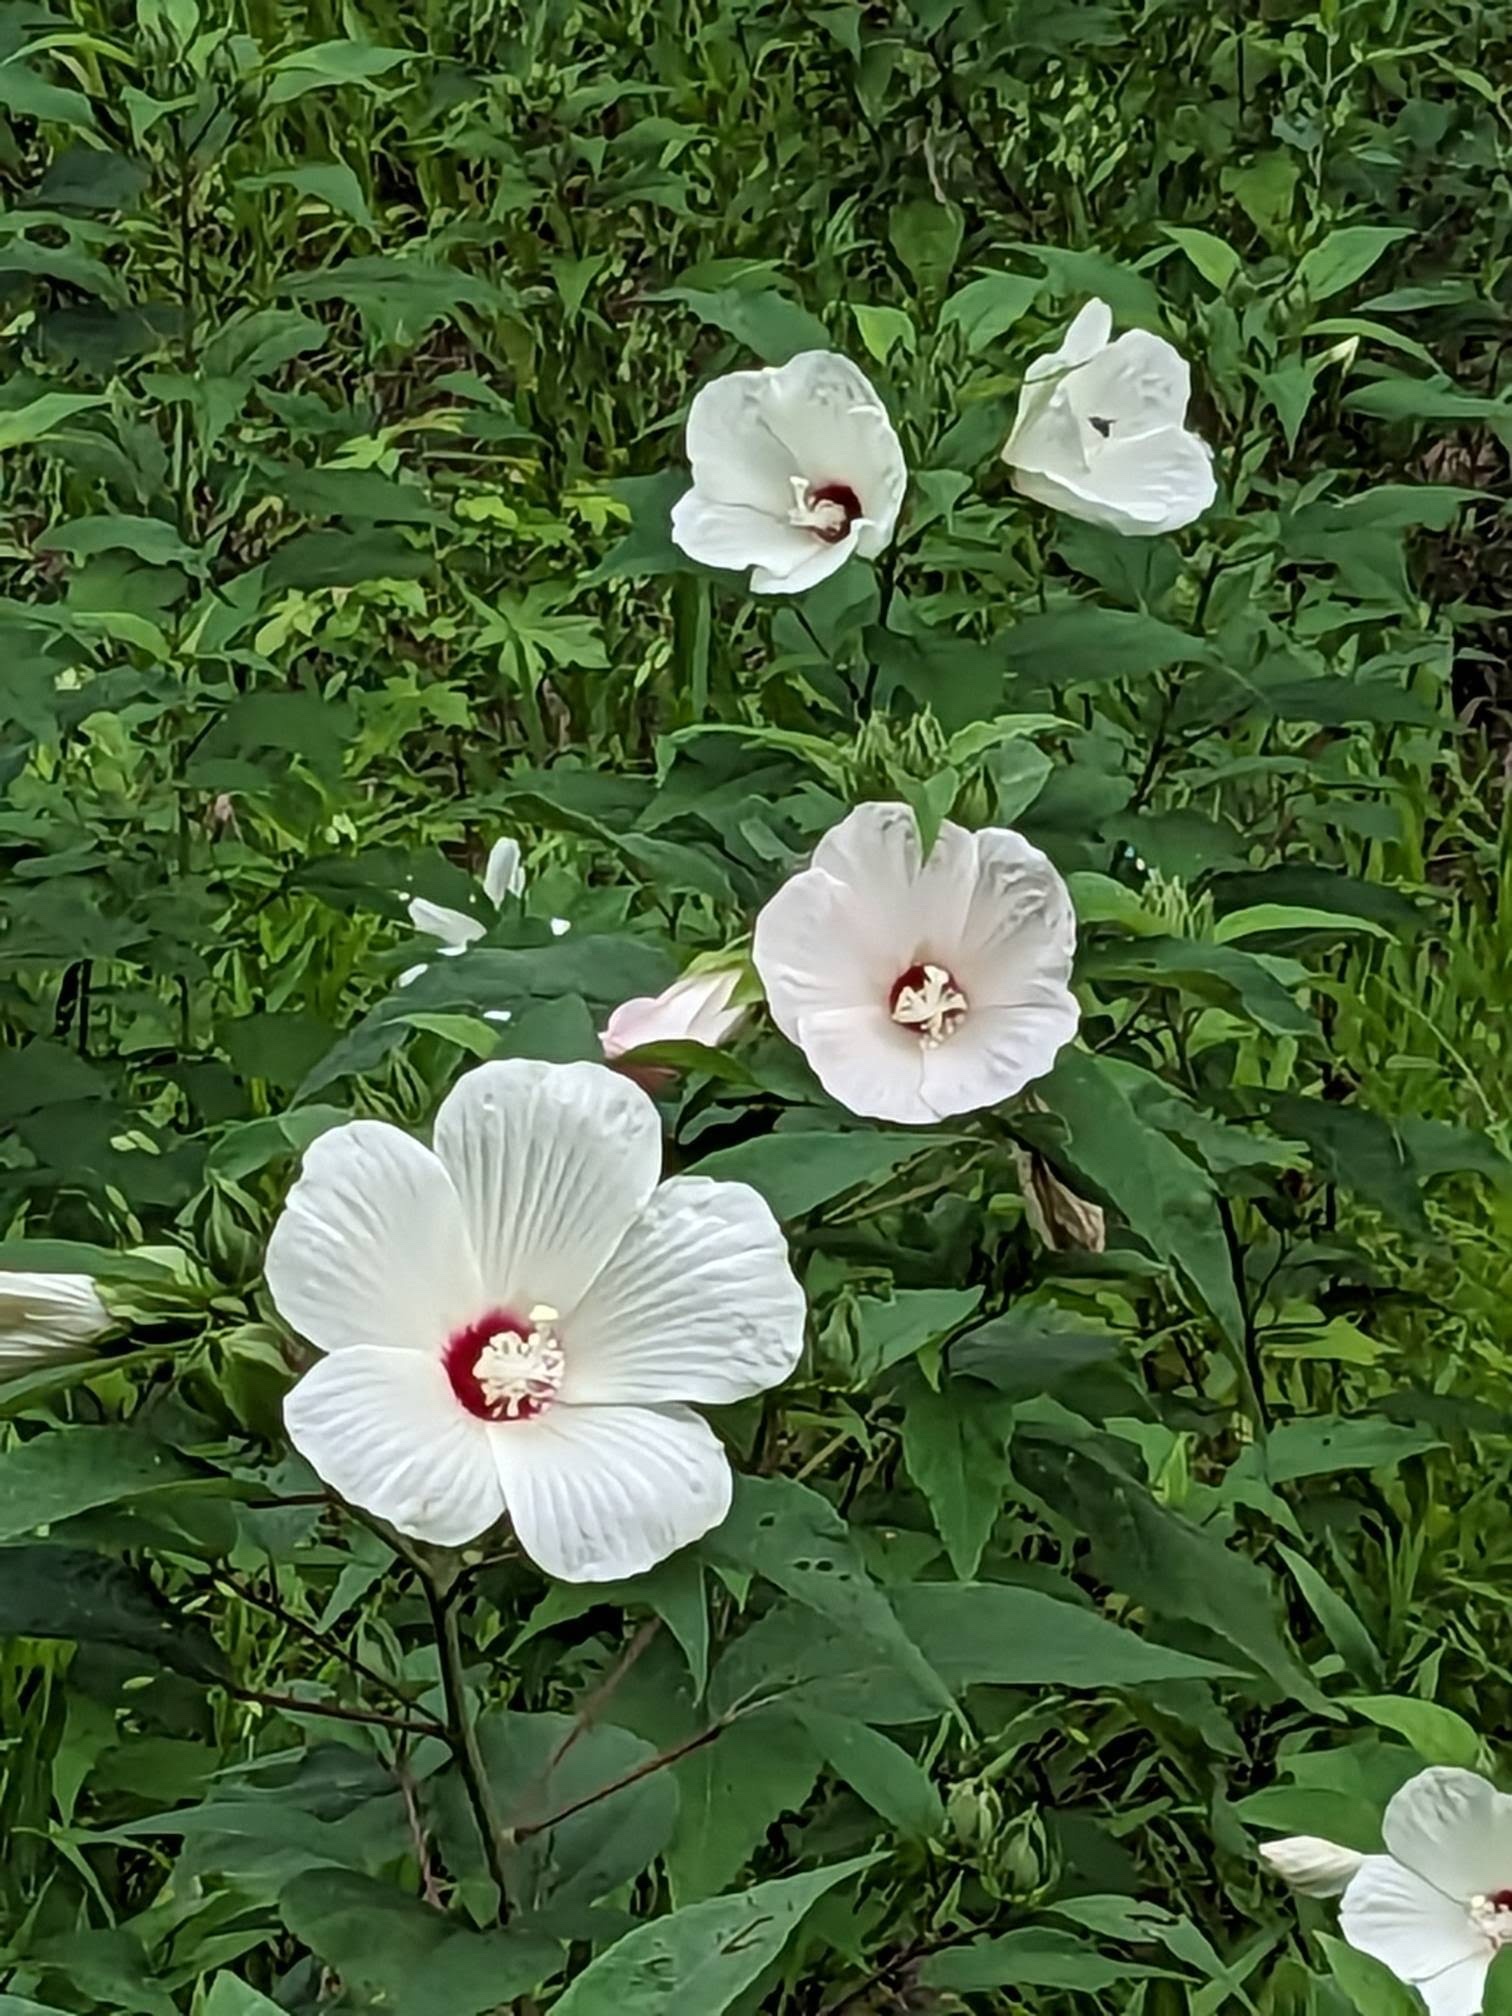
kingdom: Plantae
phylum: Tracheophyta
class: Magnoliopsida
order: Malvales
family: Malvaceae
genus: Hibiscus
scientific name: Hibiscus moscheutos
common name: Common rose-mallow
